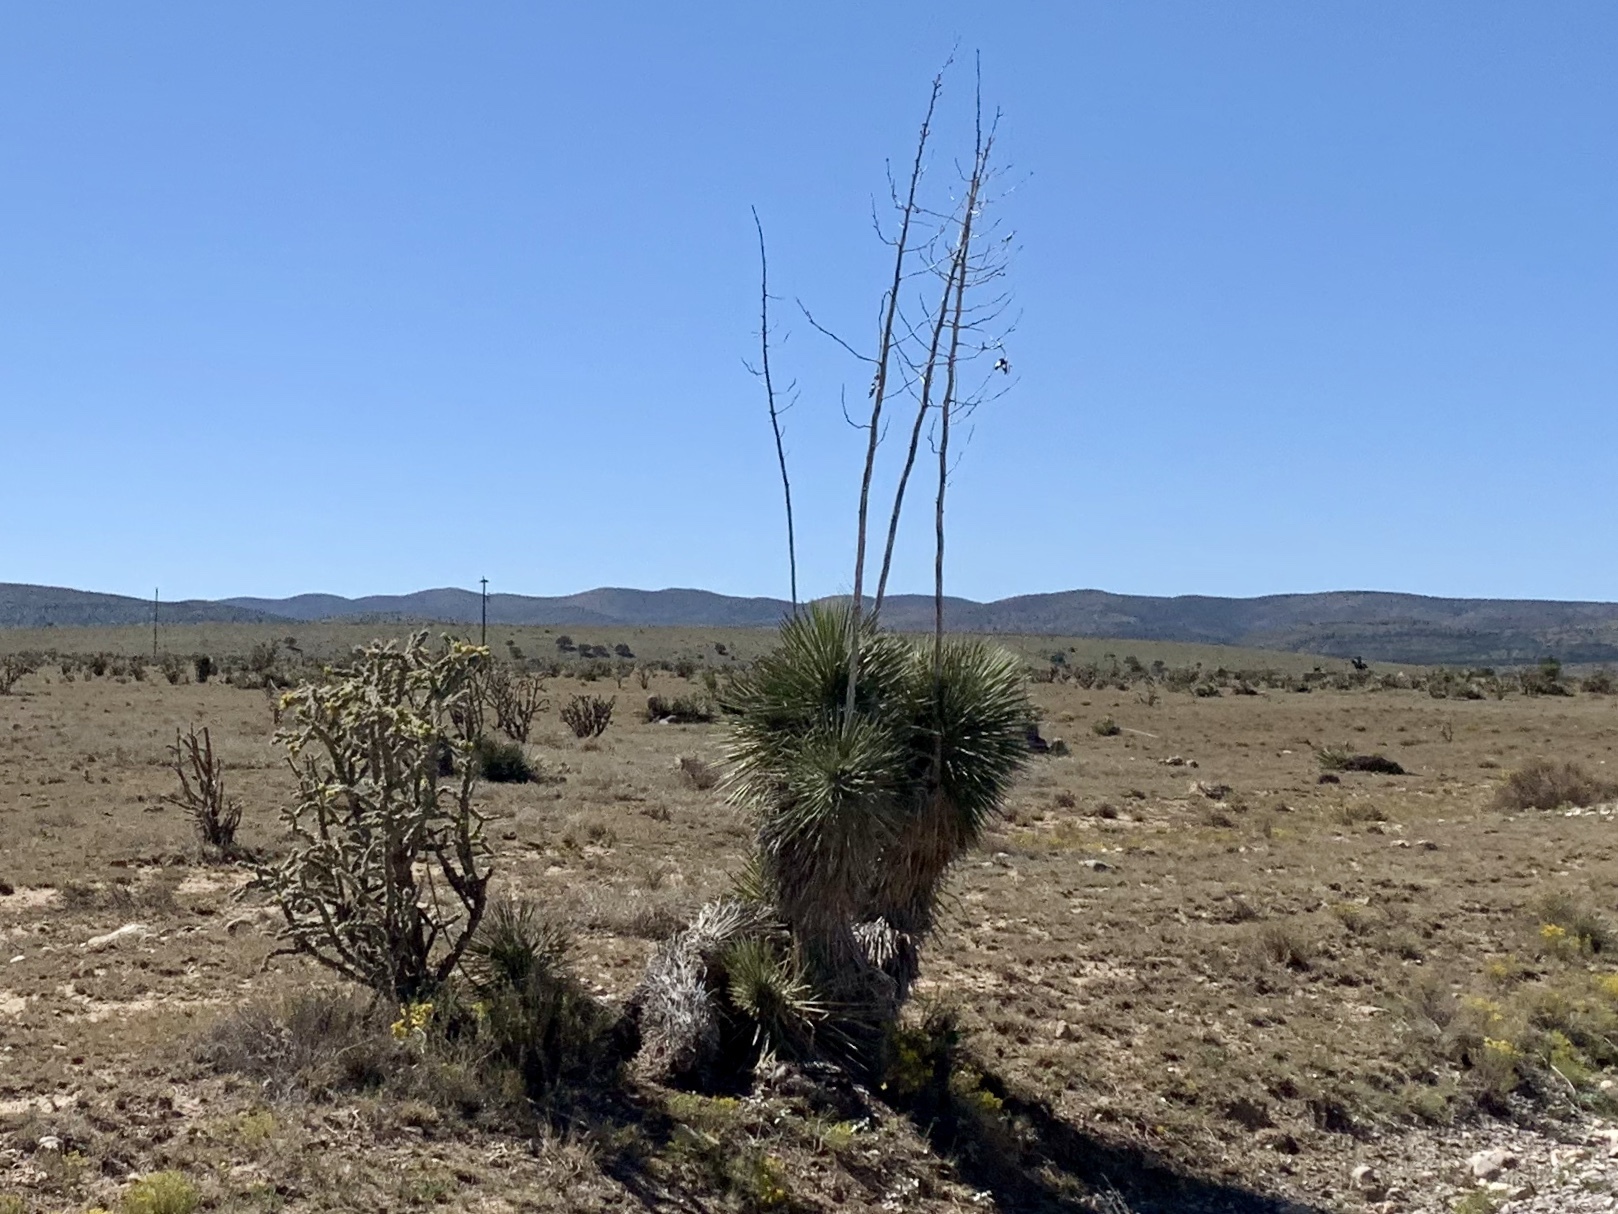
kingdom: Plantae
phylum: Tracheophyta
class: Liliopsida
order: Asparagales
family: Asparagaceae
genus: Yucca
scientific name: Yucca elata
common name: Palmella
